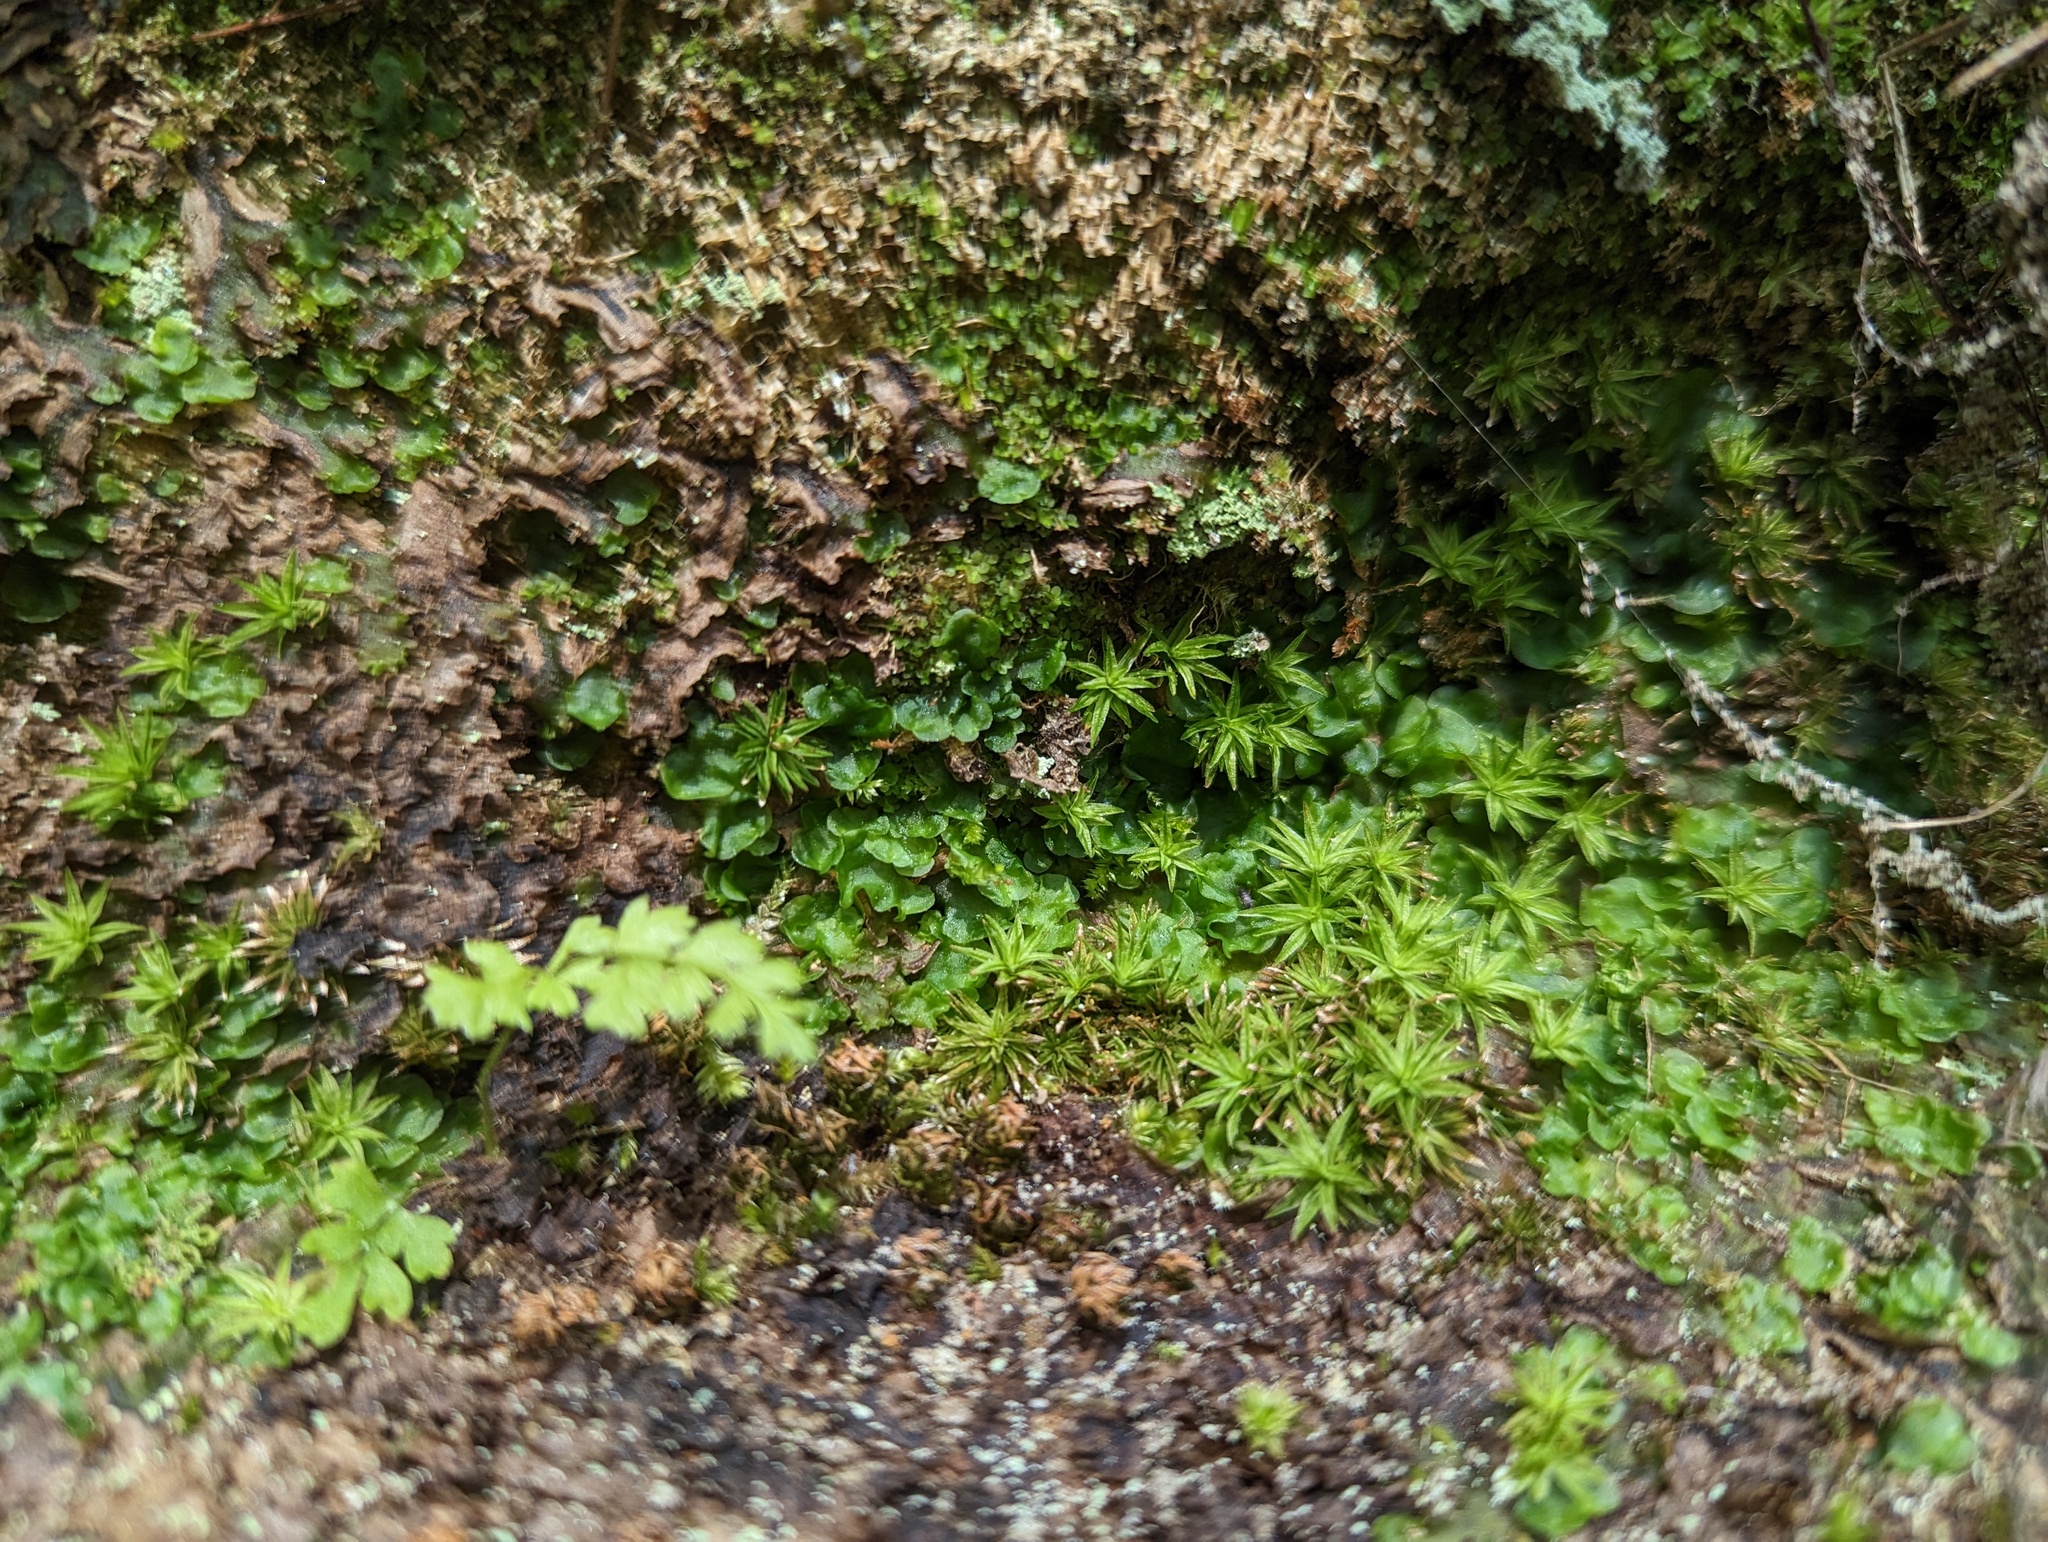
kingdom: Plantae
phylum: Marchantiophyta
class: Jungermanniopsida
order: Pelliales
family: Pelliaceae
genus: Pellia
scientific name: Pellia epiphylla
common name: Common pellia
